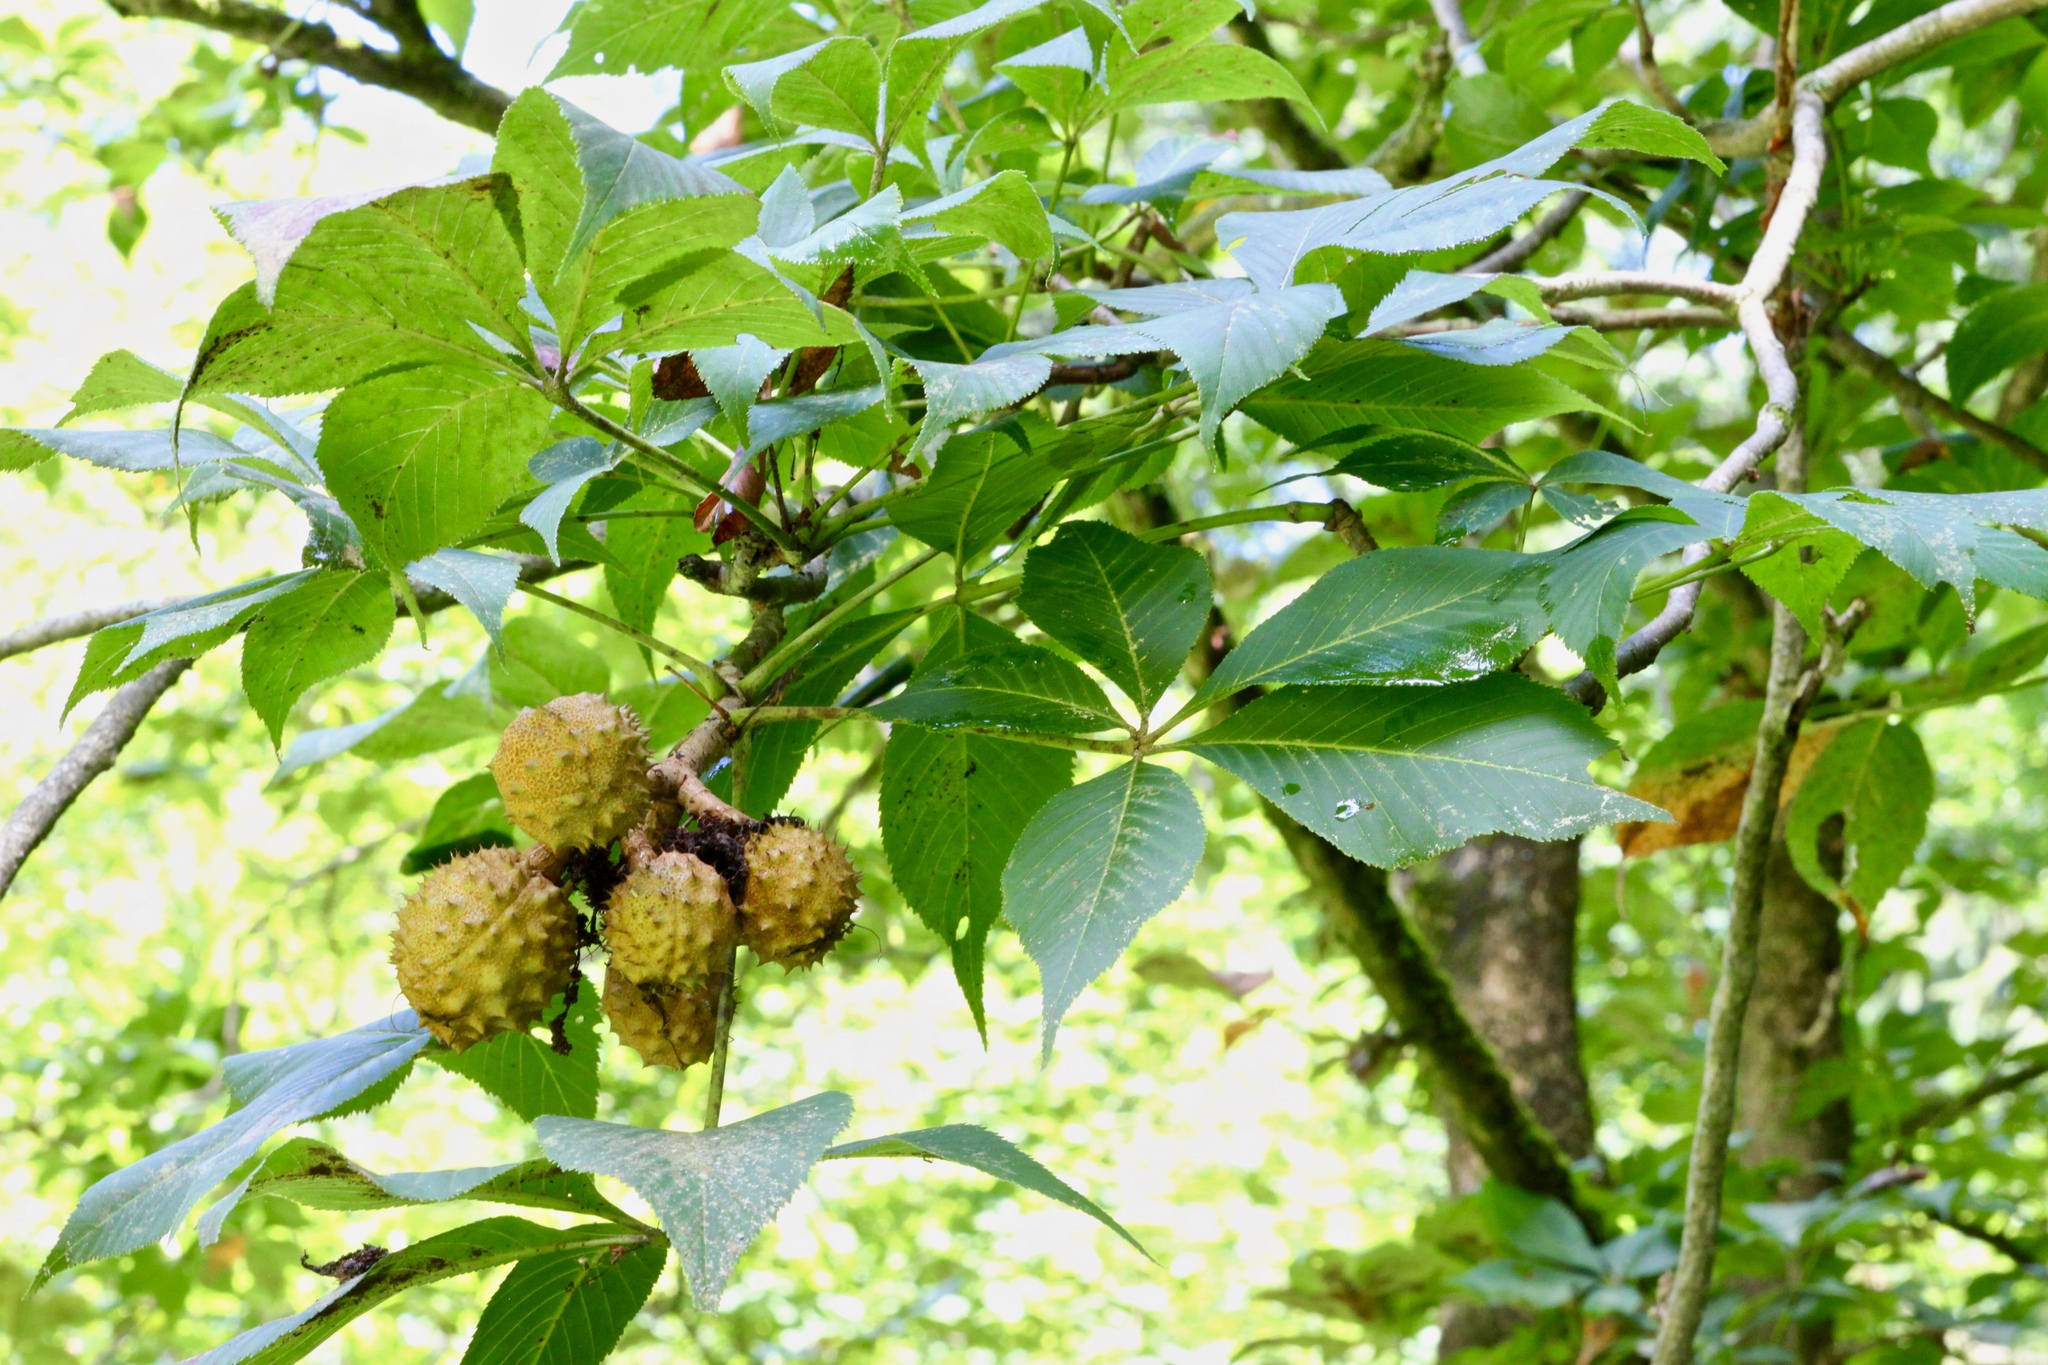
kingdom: Plantae
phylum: Tracheophyta
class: Magnoliopsida
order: Sapindales
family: Sapindaceae
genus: Aesculus
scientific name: Aesculus glabra
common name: Ohio buckeye
